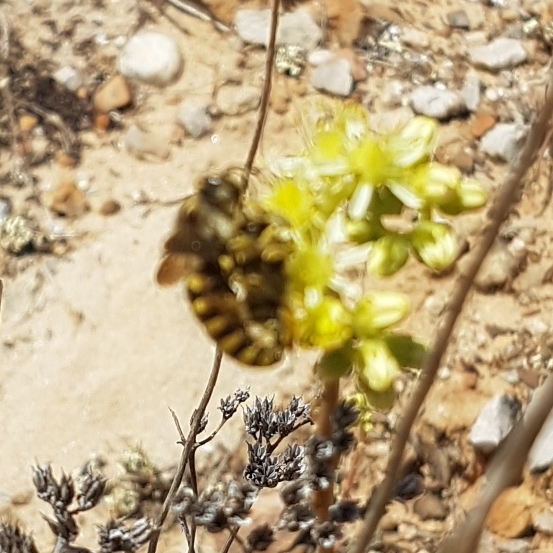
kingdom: Animalia
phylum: Arthropoda
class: Insecta
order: Hymenoptera
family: Megachilidae
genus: Anthidium
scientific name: Anthidium florentinum
